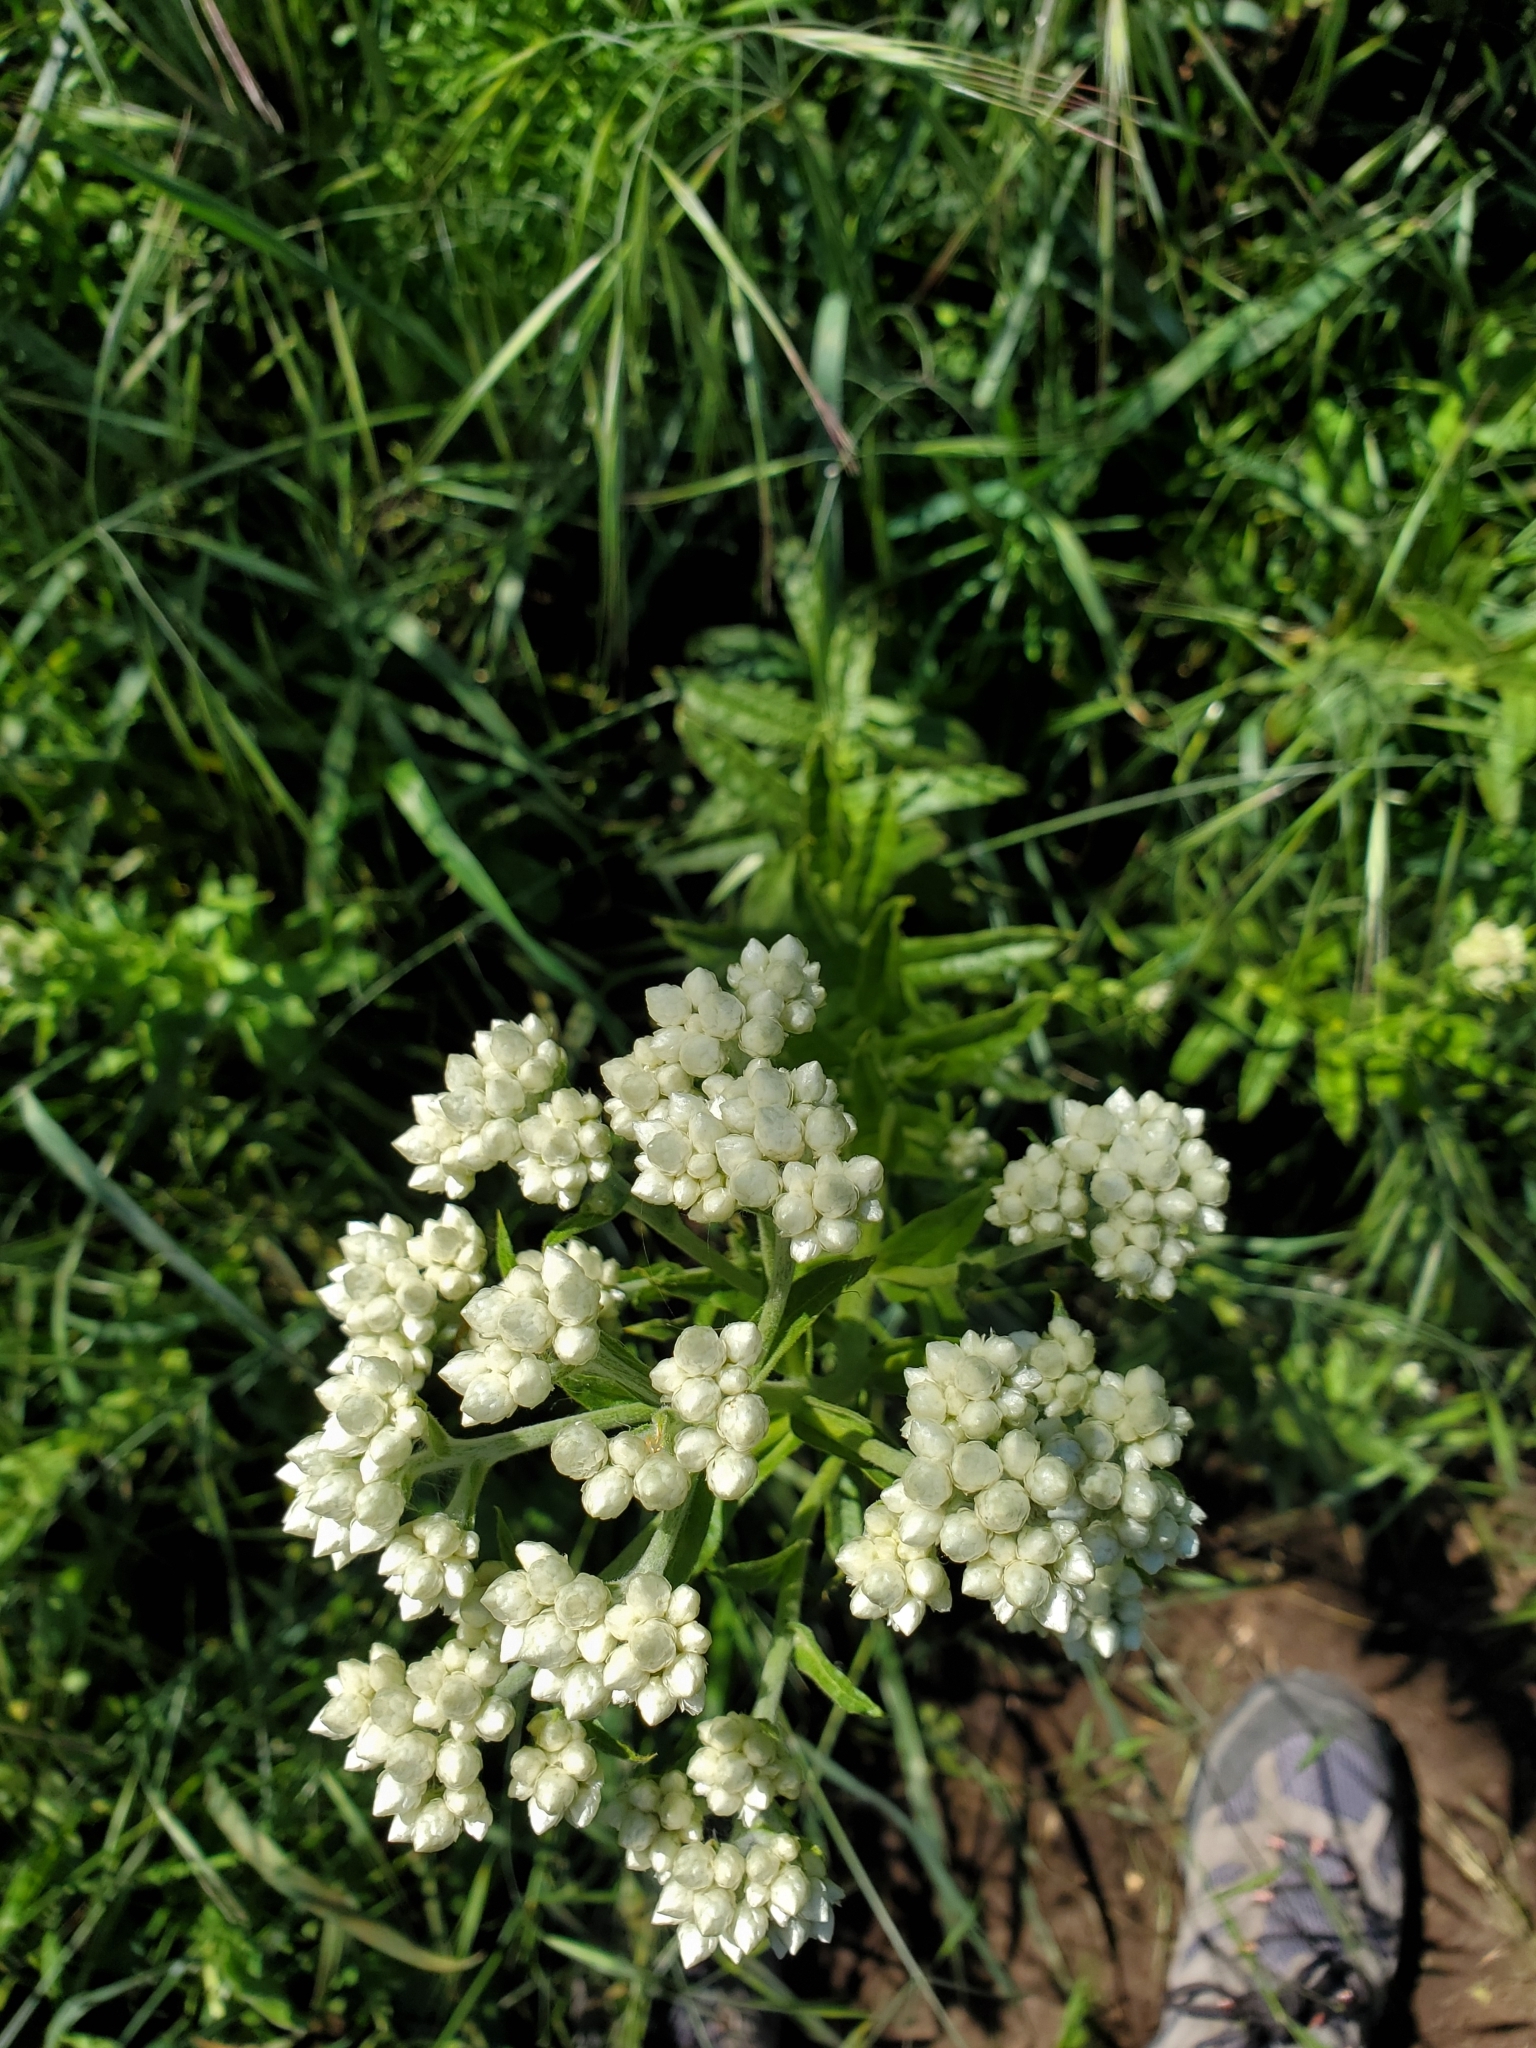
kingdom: Plantae
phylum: Tracheophyta
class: Magnoliopsida
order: Asterales
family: Asteraceae
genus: Pseudognaphalium
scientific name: Pseudognaphalium californicum
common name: California rabbit-tobacco
